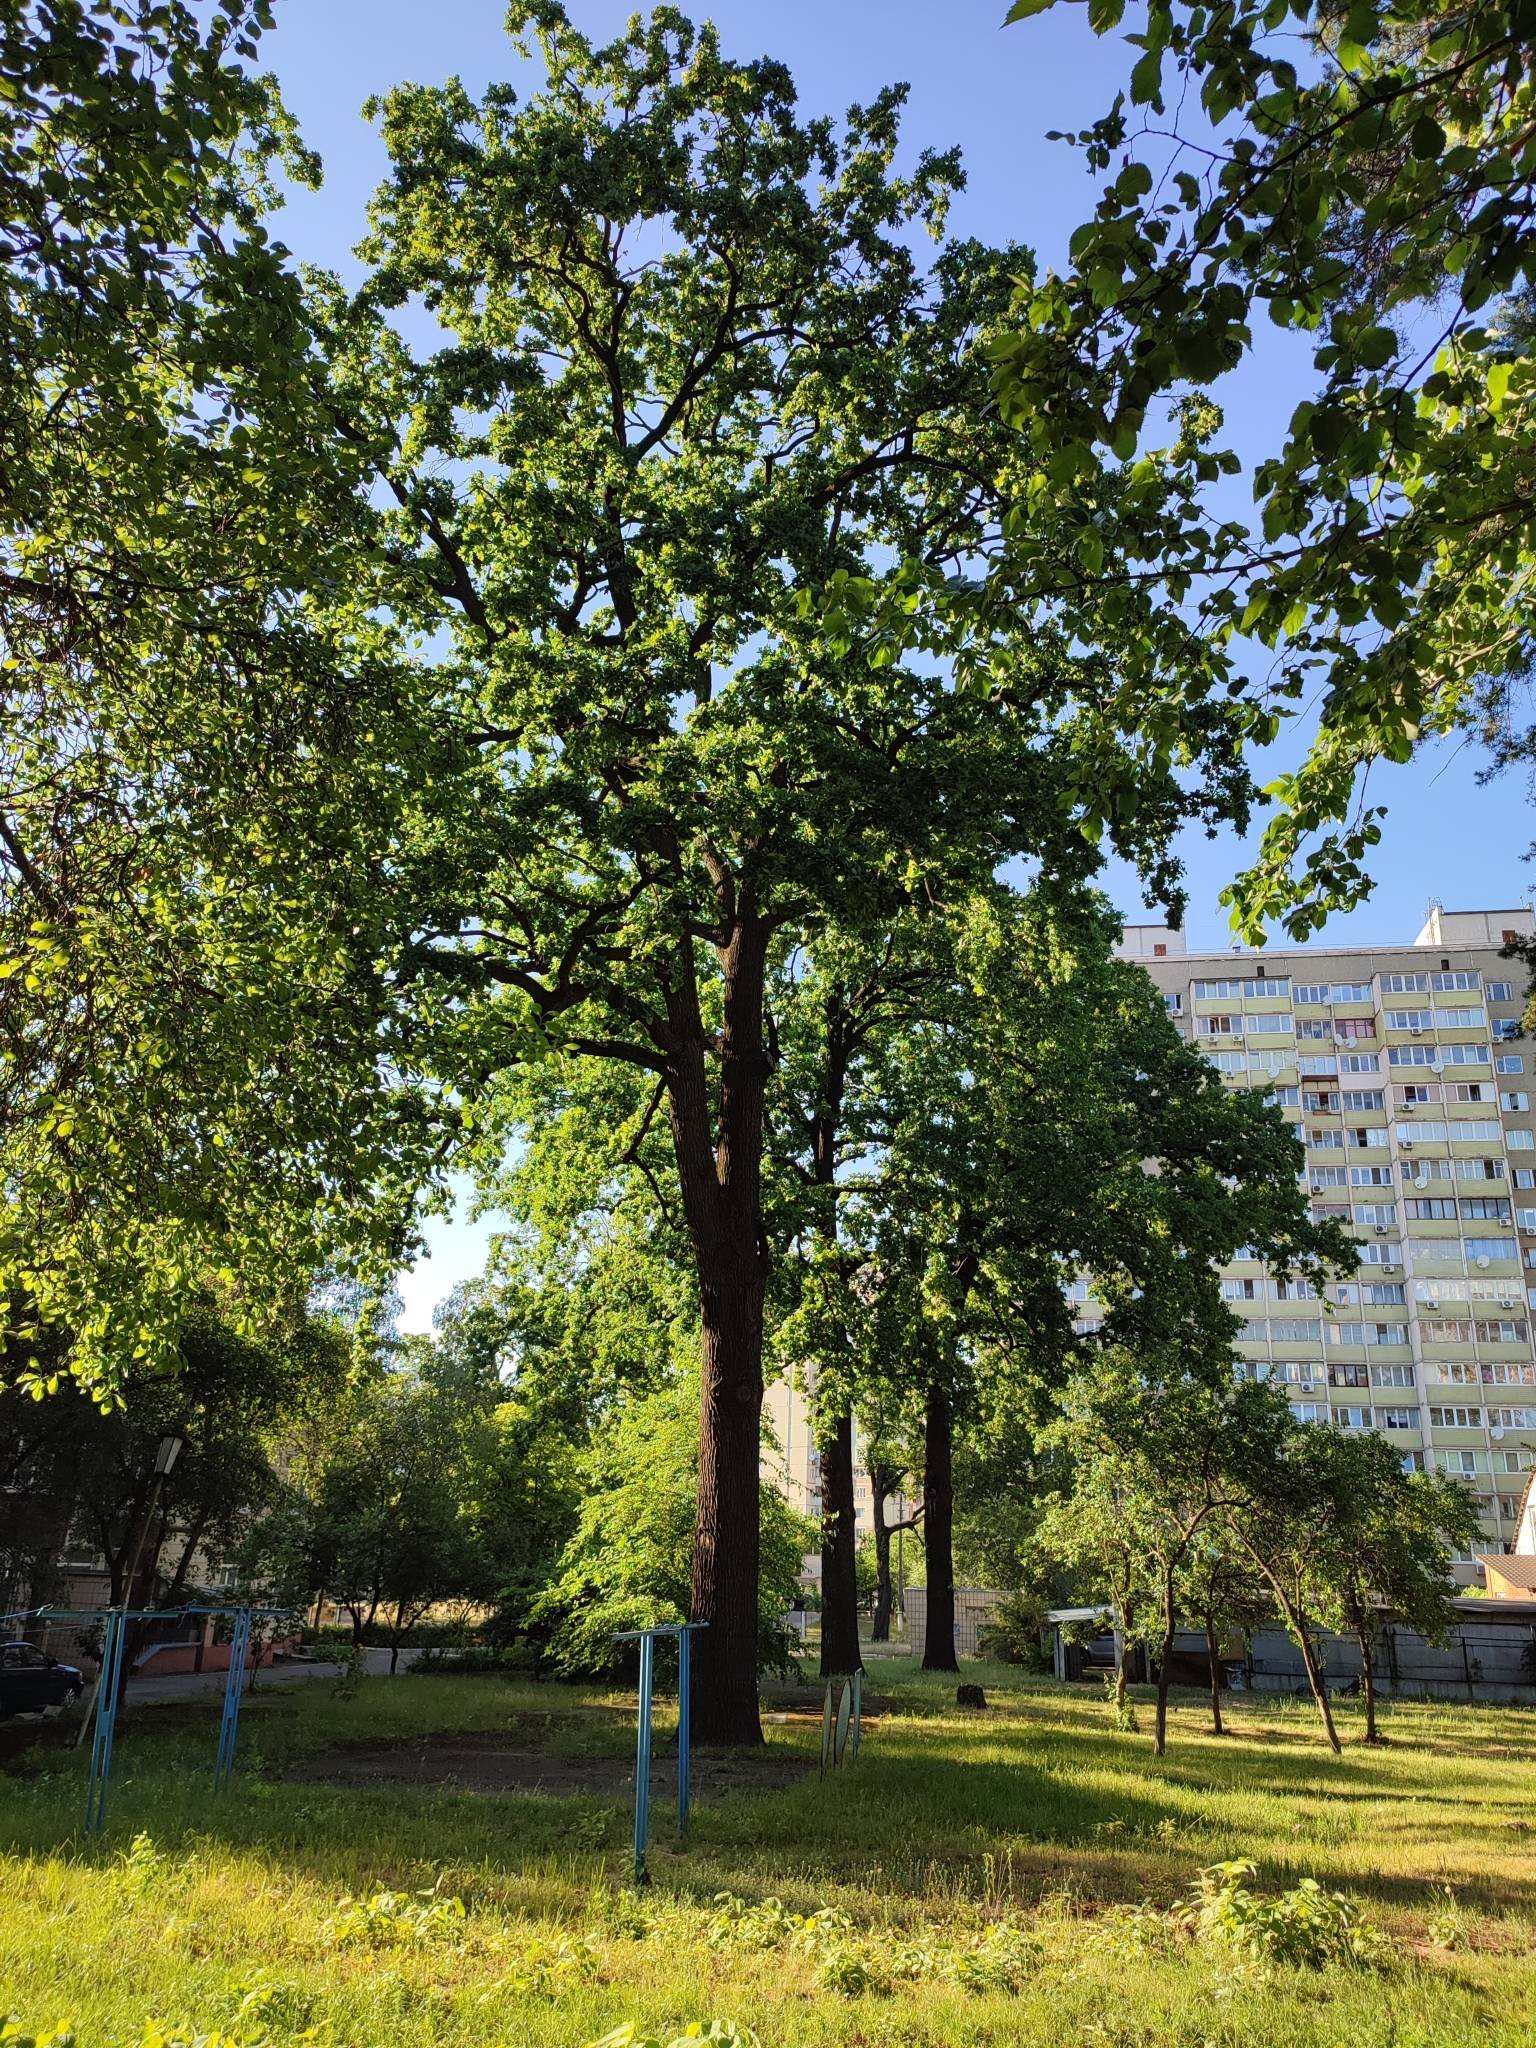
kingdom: Plantae
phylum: Tracheophyta
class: Magnoliopsida
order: Fagales
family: Fagaceae
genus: Quercus
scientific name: Quercus robur
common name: Pedunculate oak
